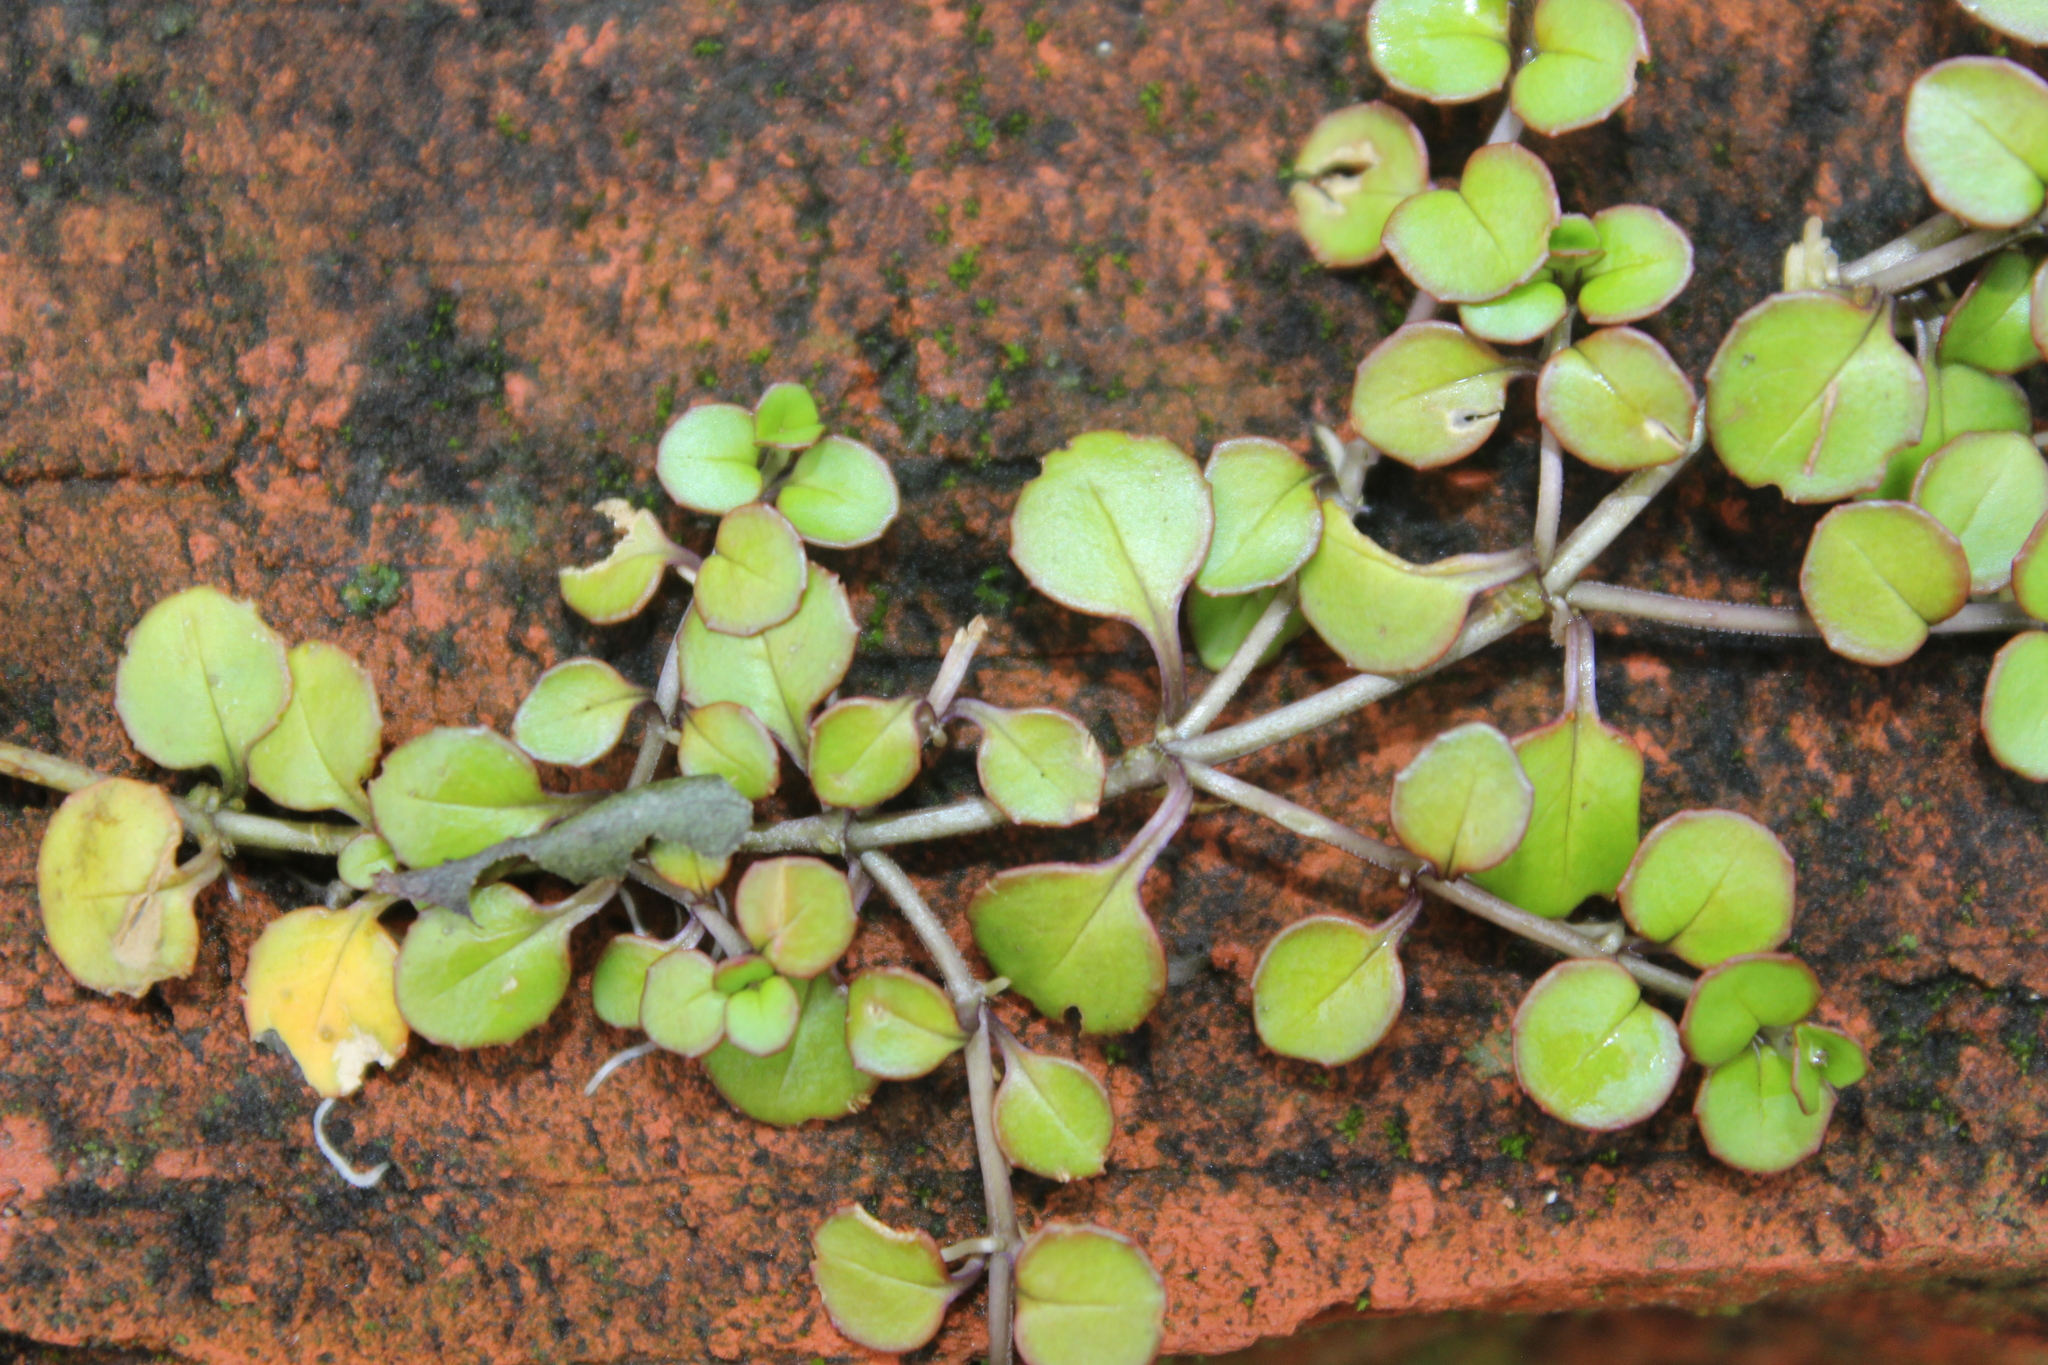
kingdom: Plantae
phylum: Tracheophyta
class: Magnoliopsida
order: Myrtales
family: Onagraceae
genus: Epilobium
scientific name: Epilobium nummularifolium
